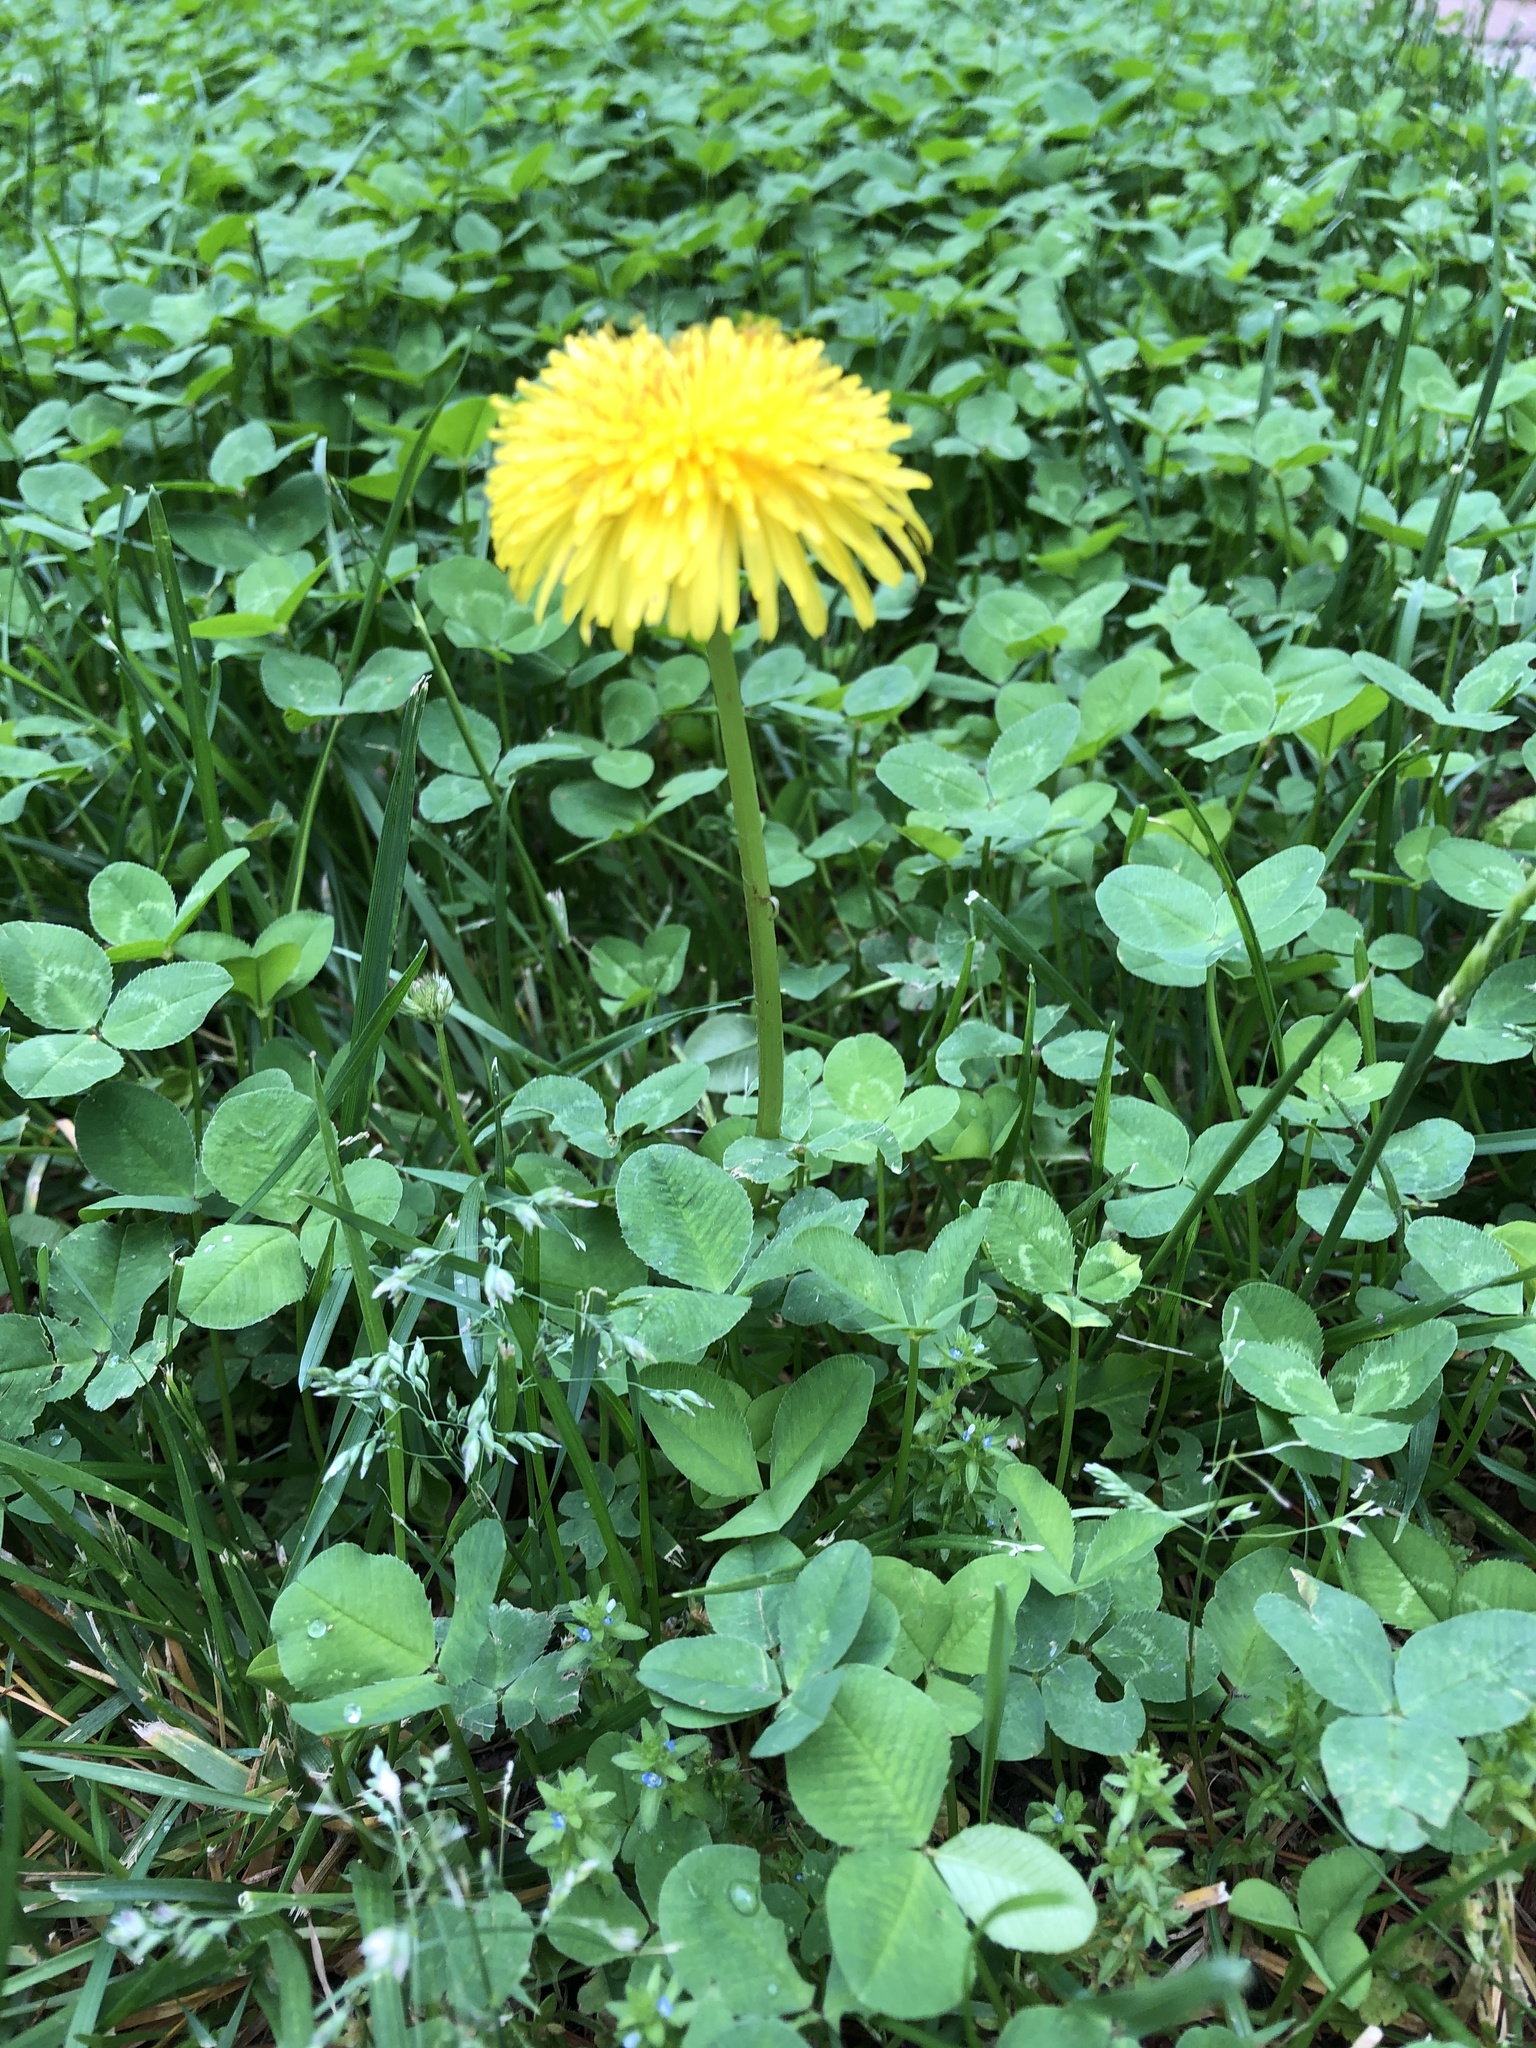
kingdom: Plantae
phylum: Tracheophyta
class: Magnoliopsida
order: Asterales
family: Asteraceae
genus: Taraxacum
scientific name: Taraxacum officinale
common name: Common dandelion
